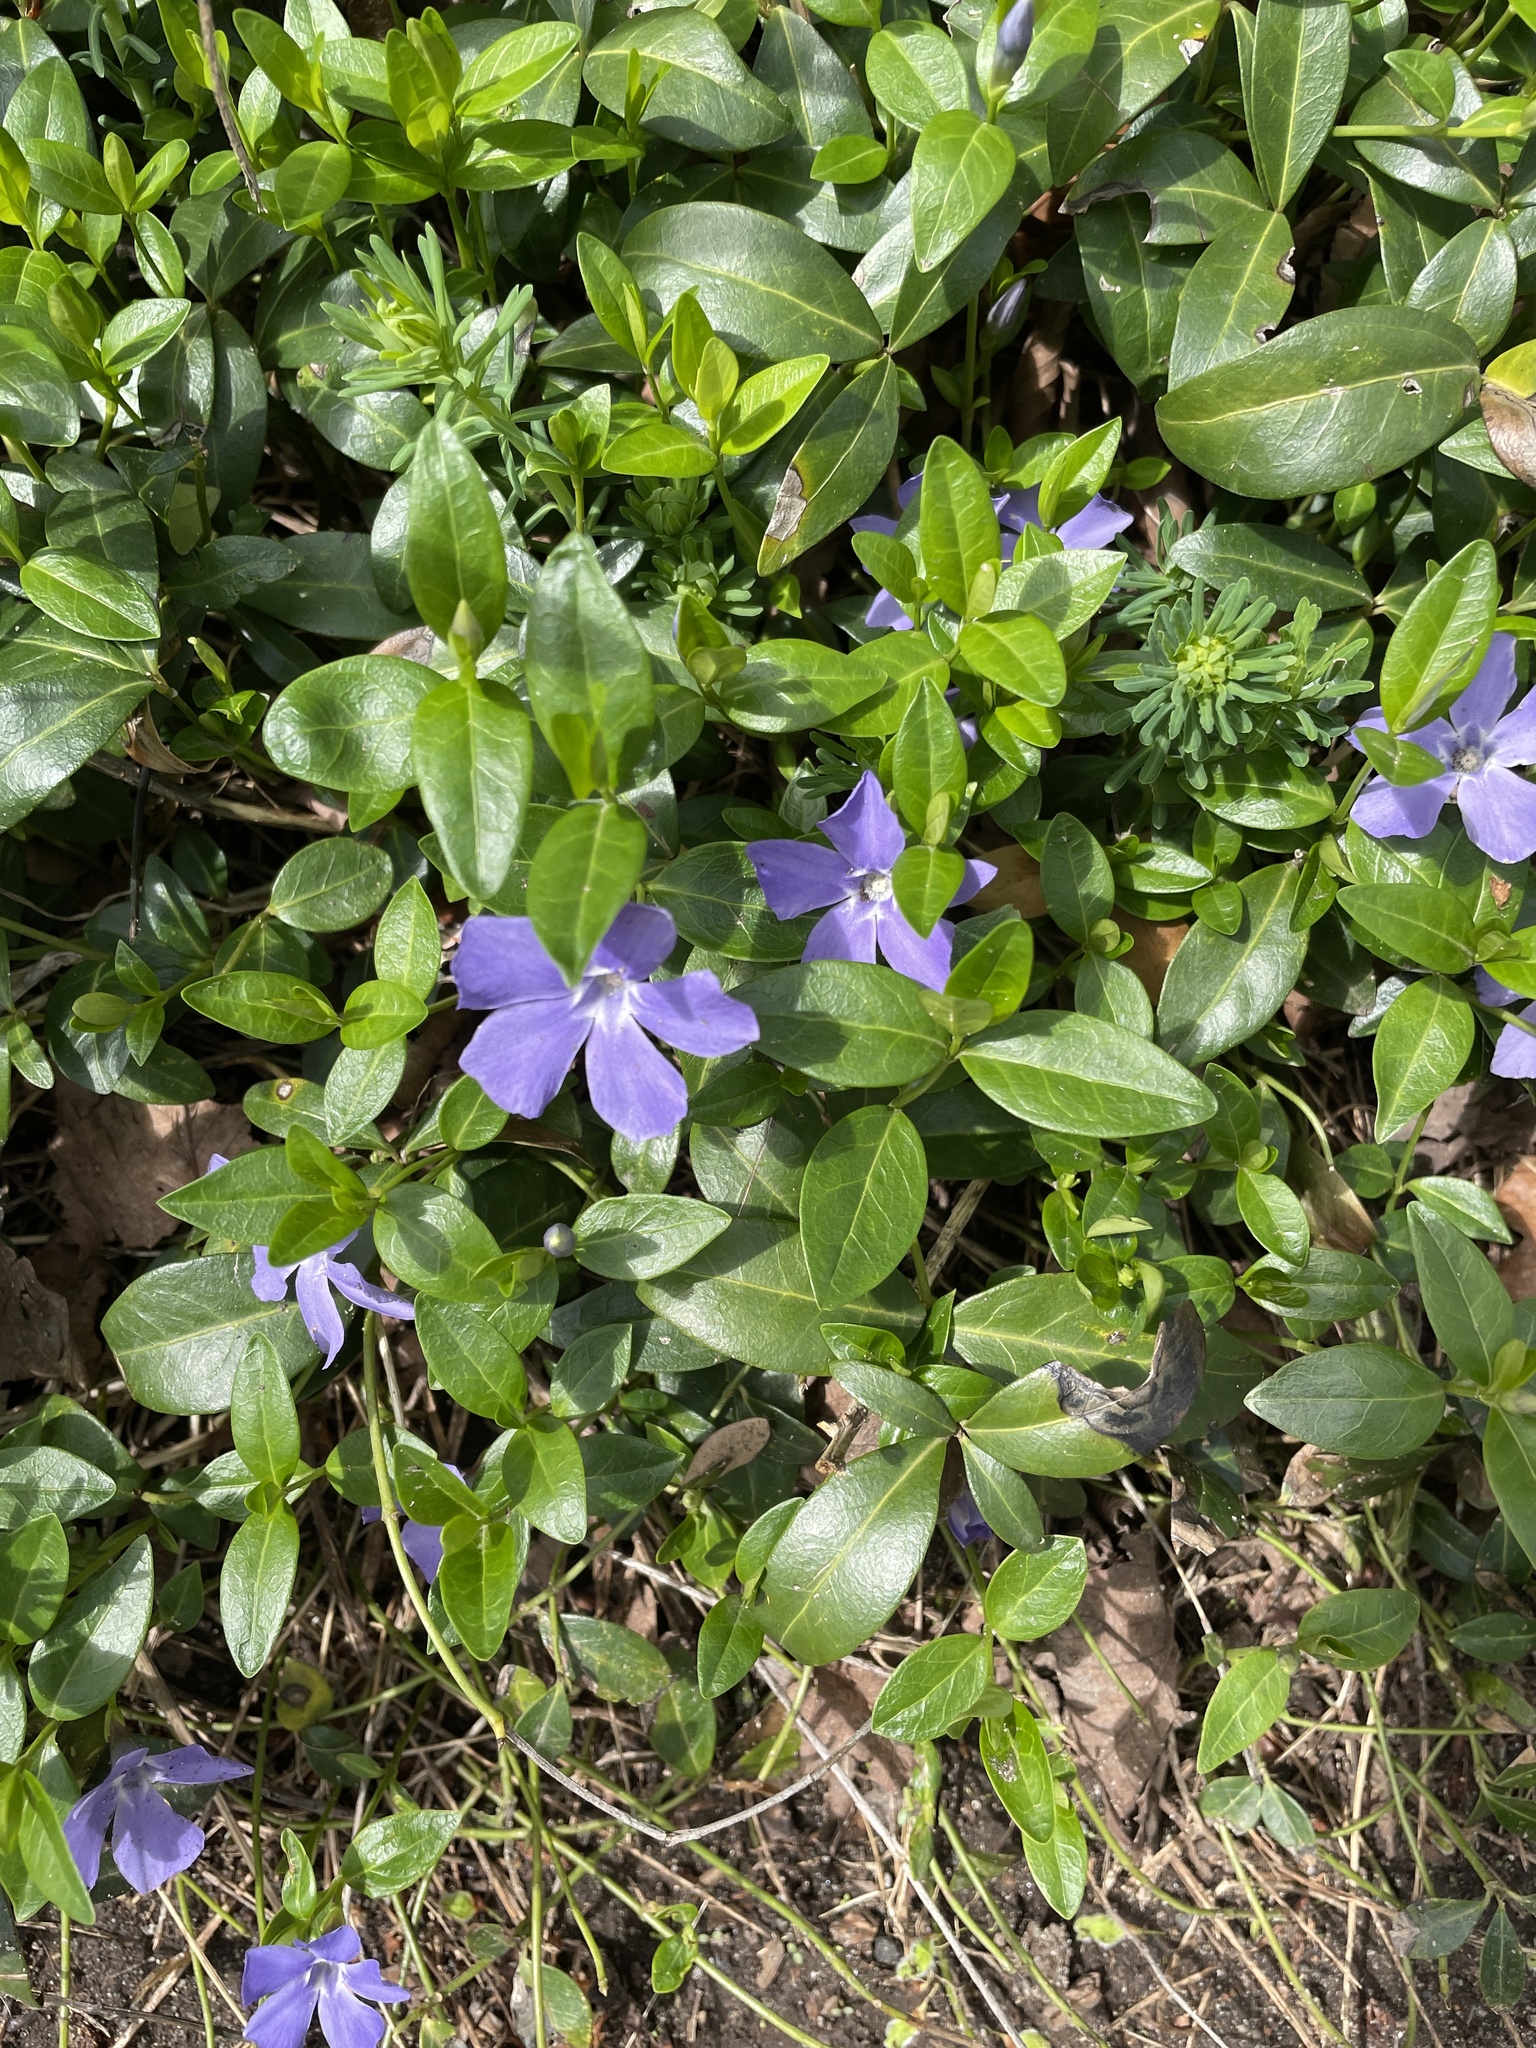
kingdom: Plantae
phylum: Tracheophyta
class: Magnoliopsida
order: Gentianales
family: Apocynaceae
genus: Vinca
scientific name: Vinca minor
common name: Lesser periwinkle
